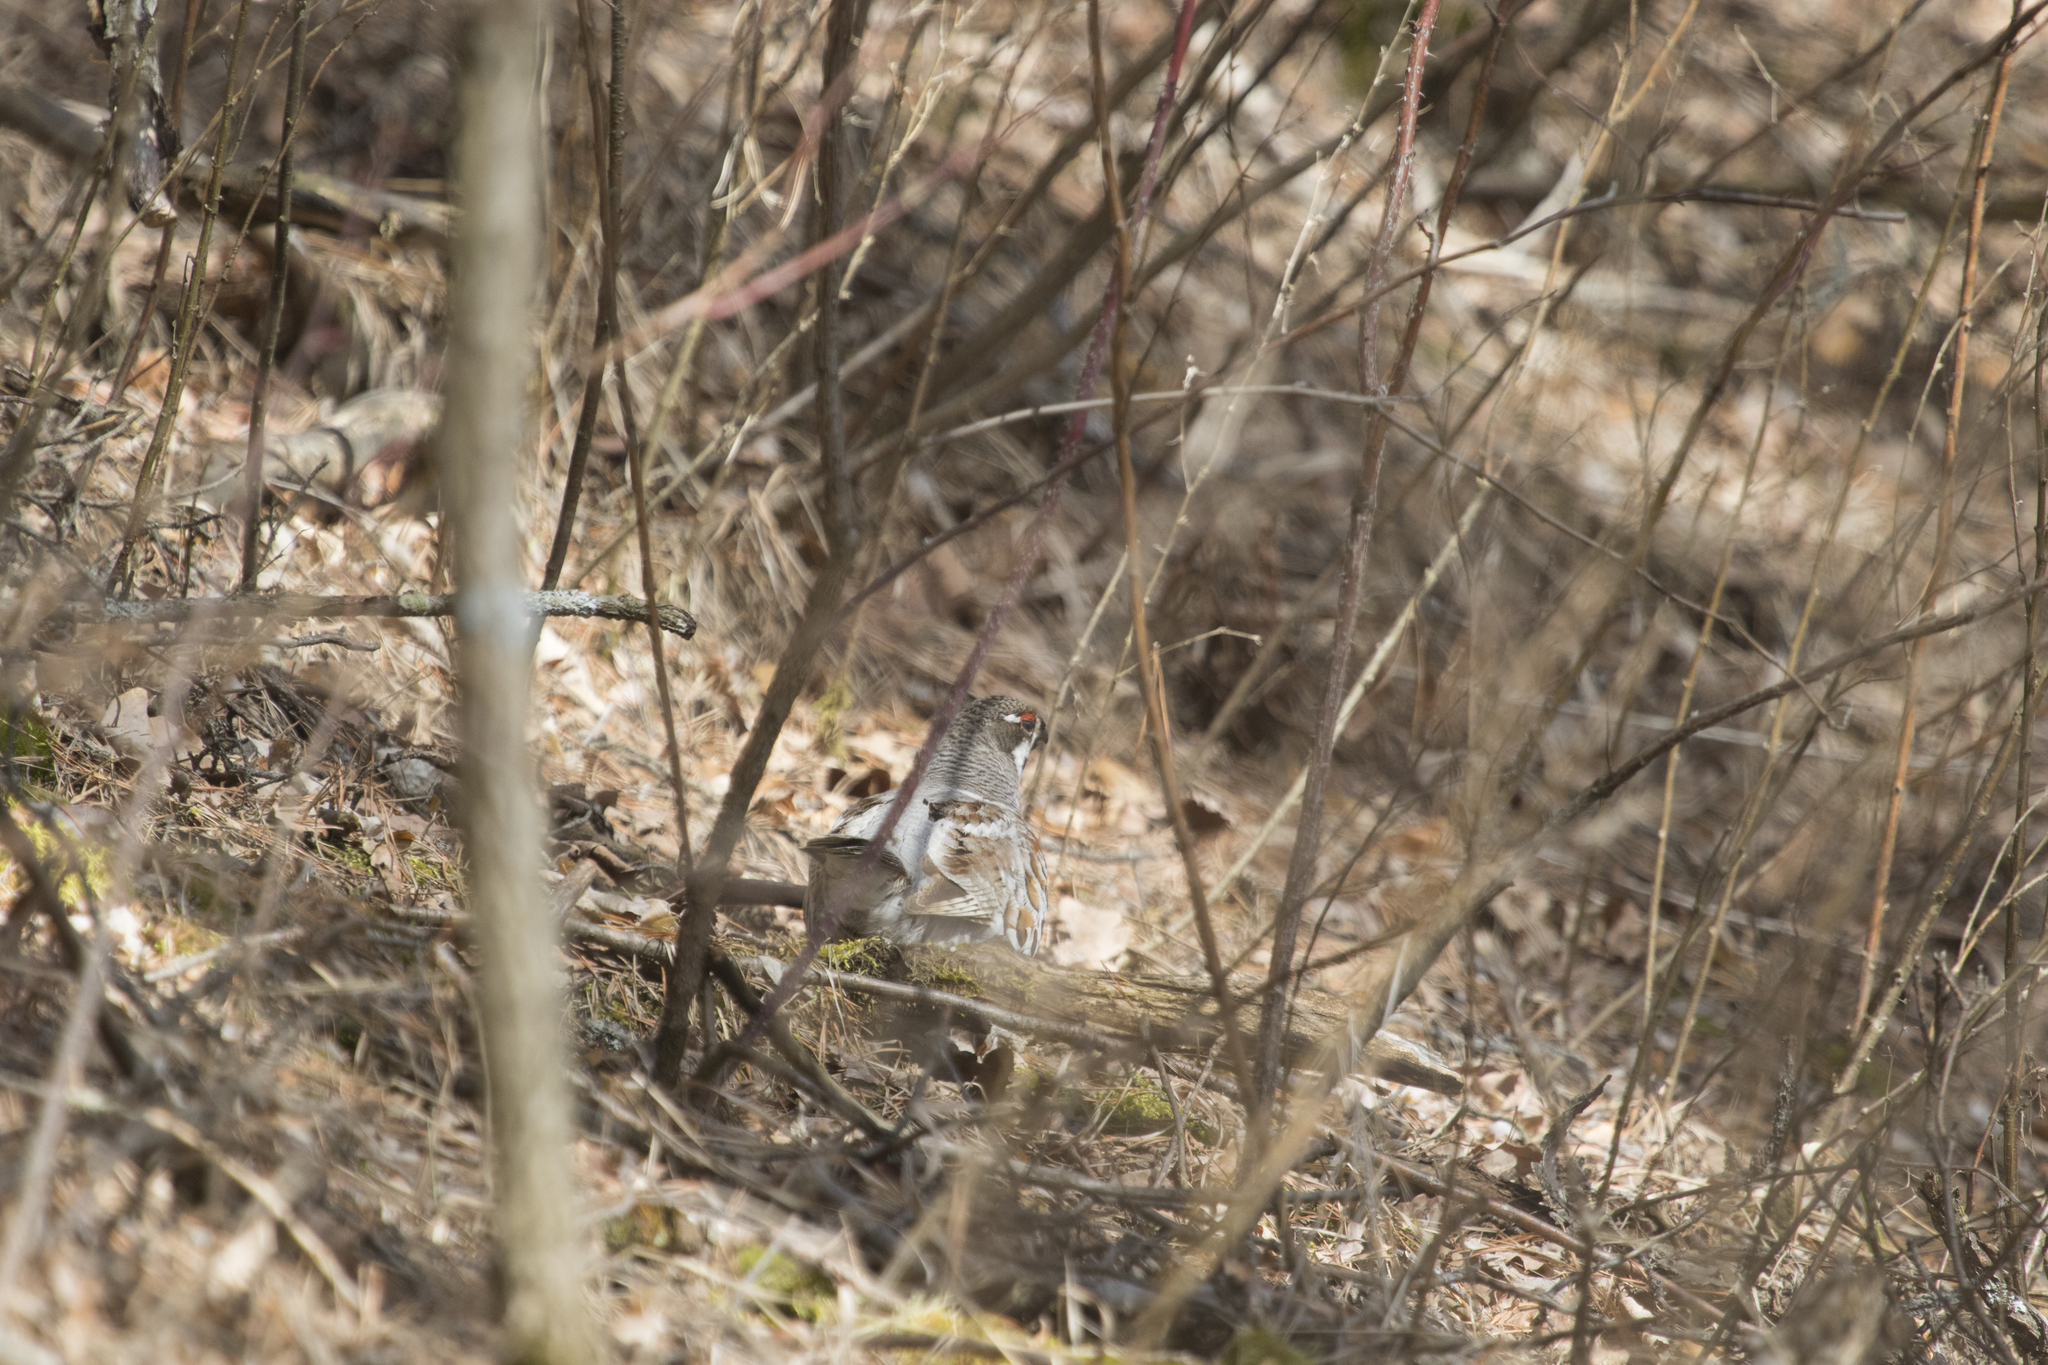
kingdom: Animalia
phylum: Chordata
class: Aves
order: Galliformes
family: Phasianidae
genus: Tetrastes
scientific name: Tetrastes bonasia
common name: Hazel grouse
